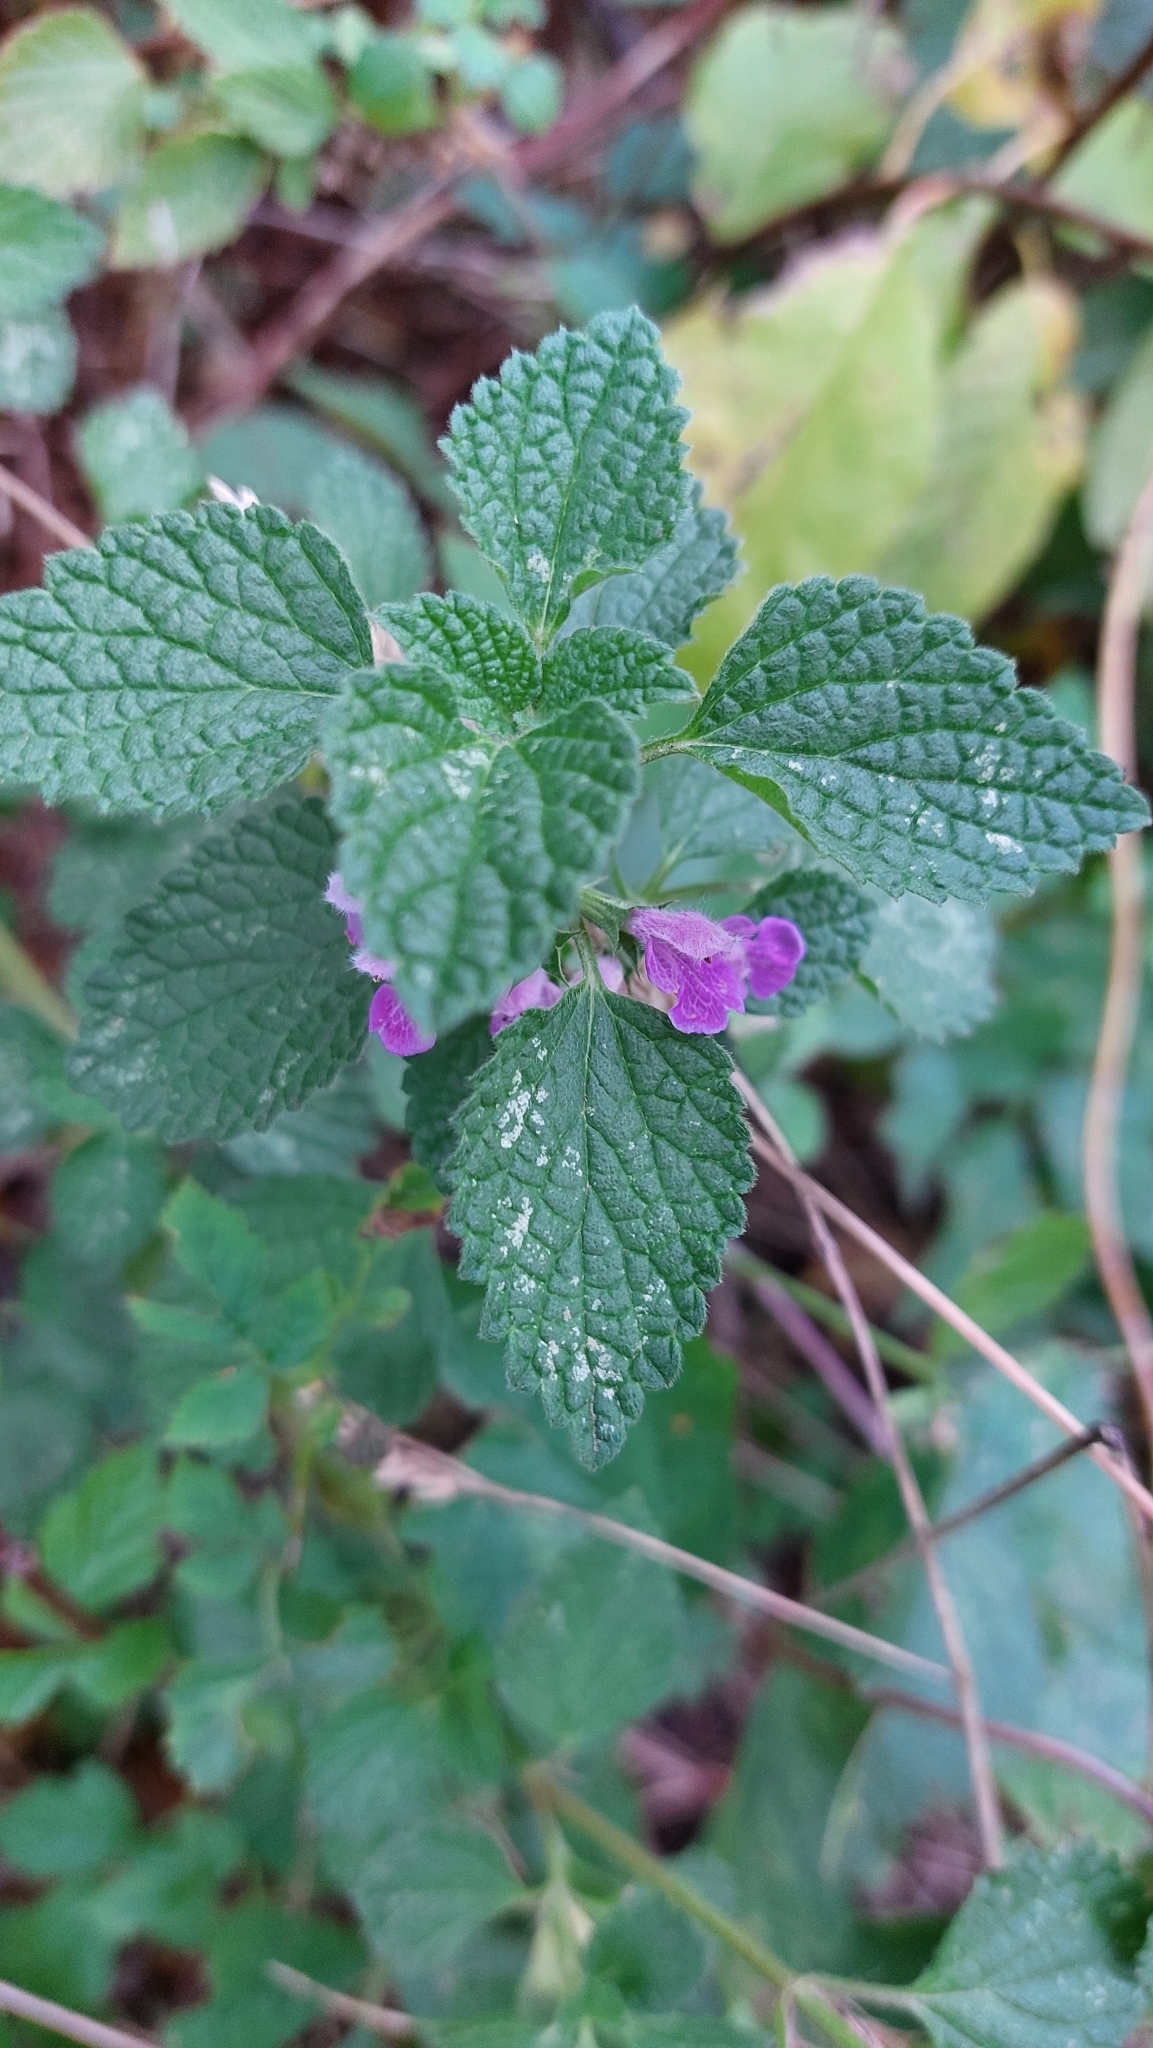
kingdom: Plantae
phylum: Tracheophyta
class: Magnoliopsida
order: Lamiales
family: Lamiaceae
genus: Ballota
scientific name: Ballota nigra
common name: Black horehound
